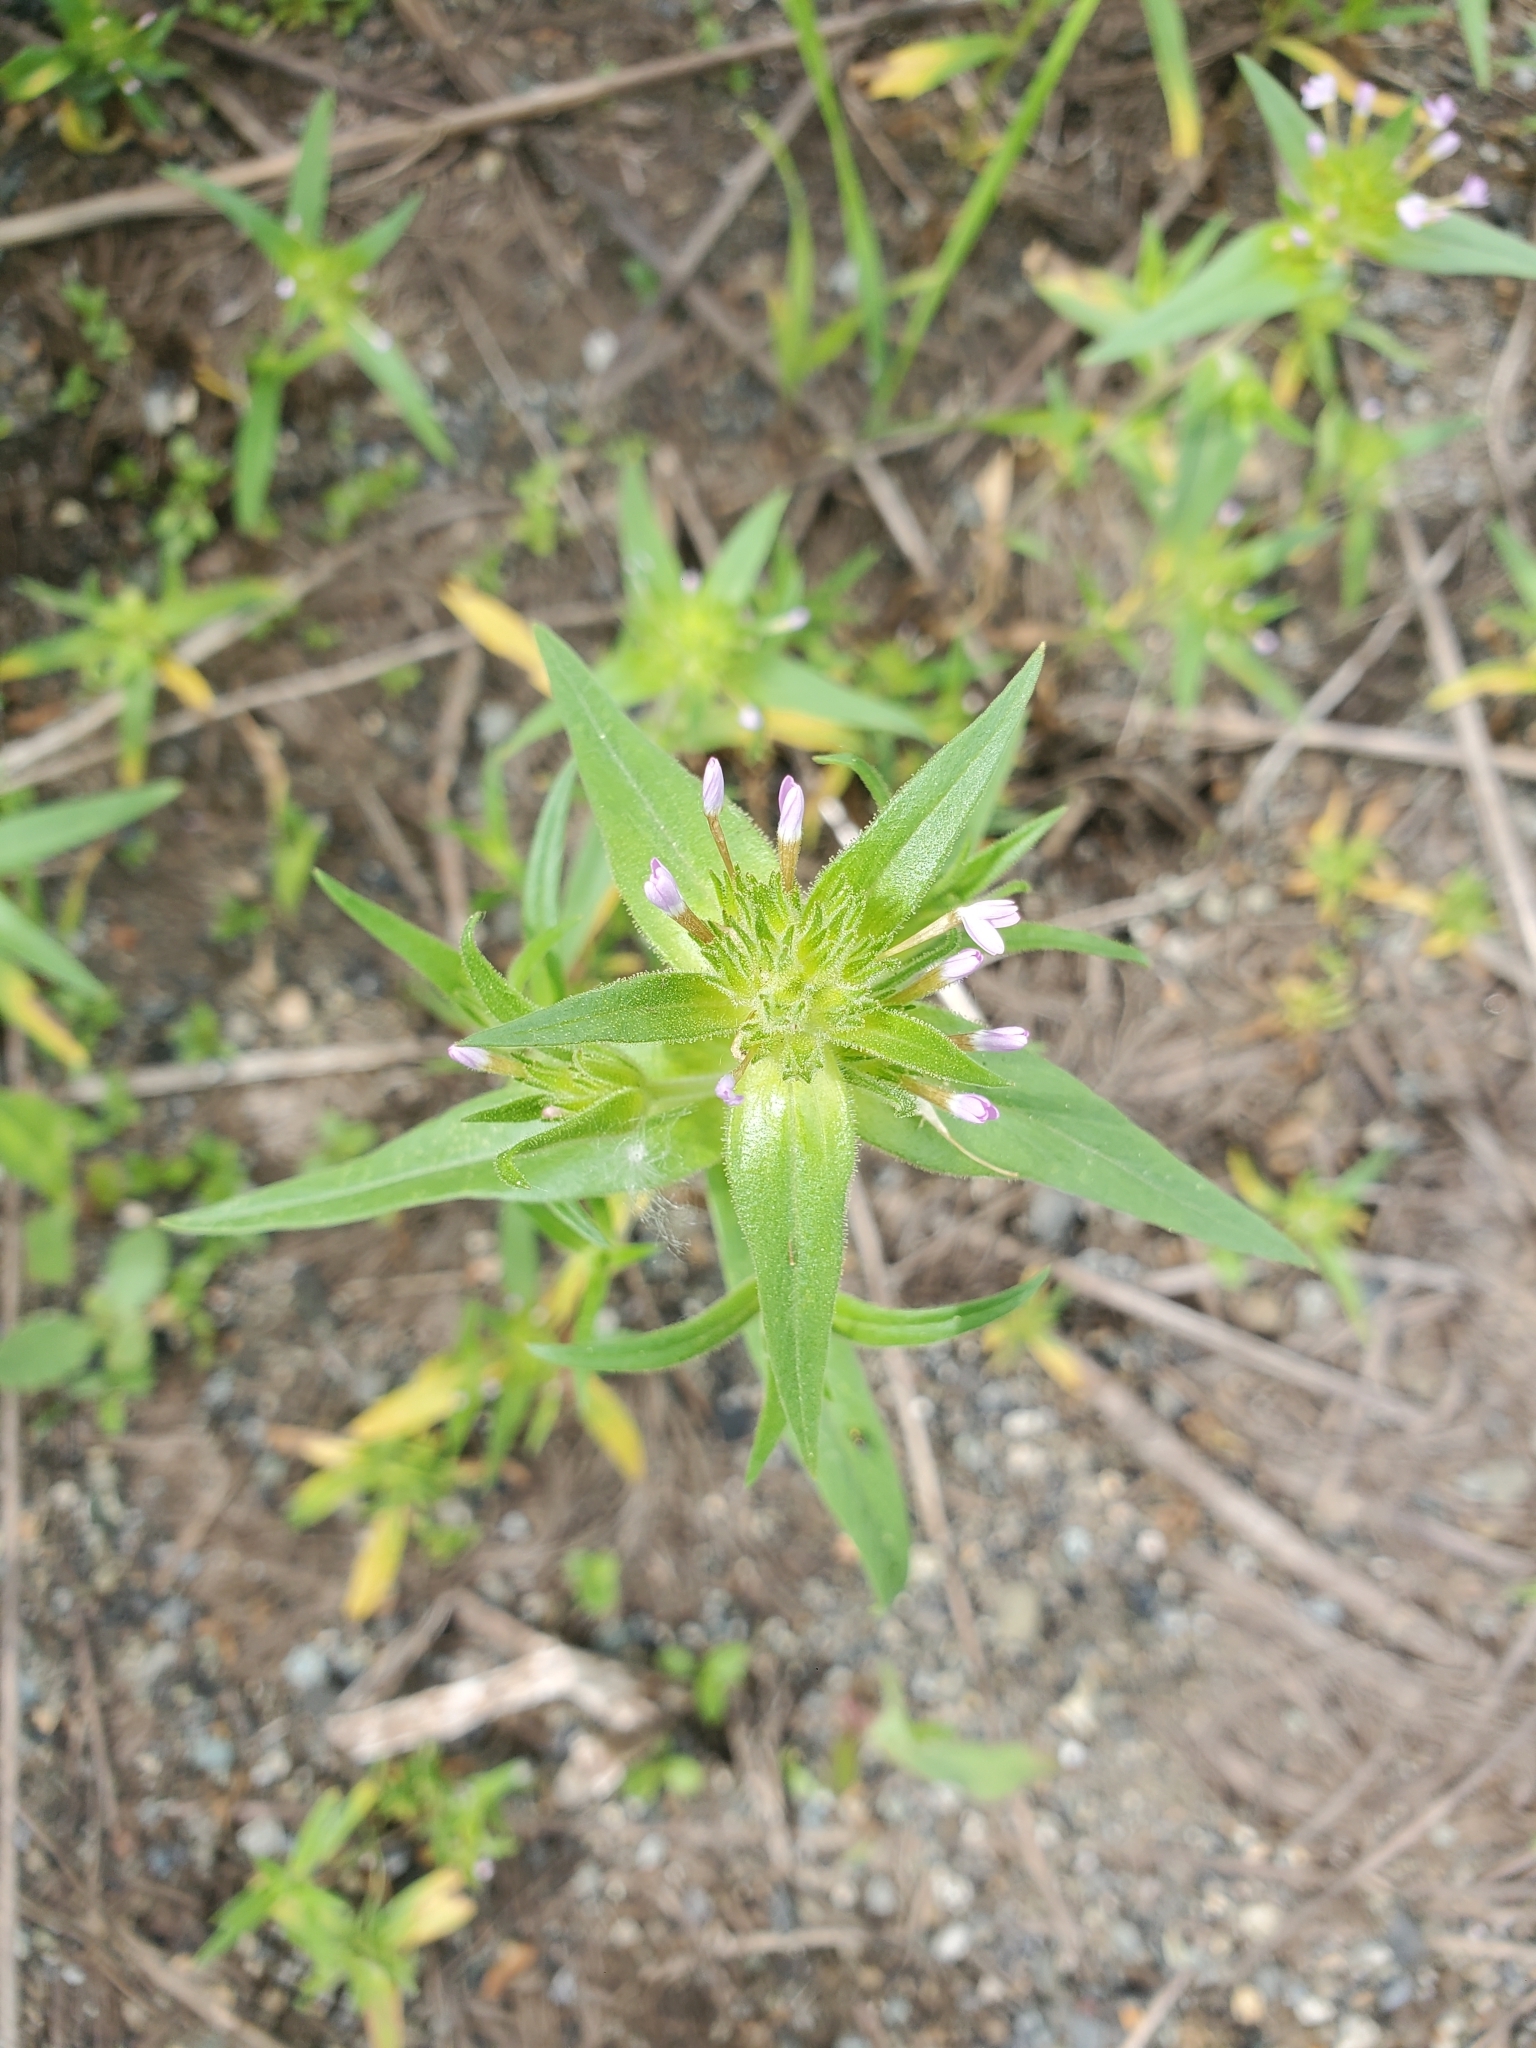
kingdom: Plantae
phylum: Tracheophyta
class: Magnoliopsida
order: Ericales
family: Polemoniaceae
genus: Collomia
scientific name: Collomia linearis
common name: Tiny trumpet
